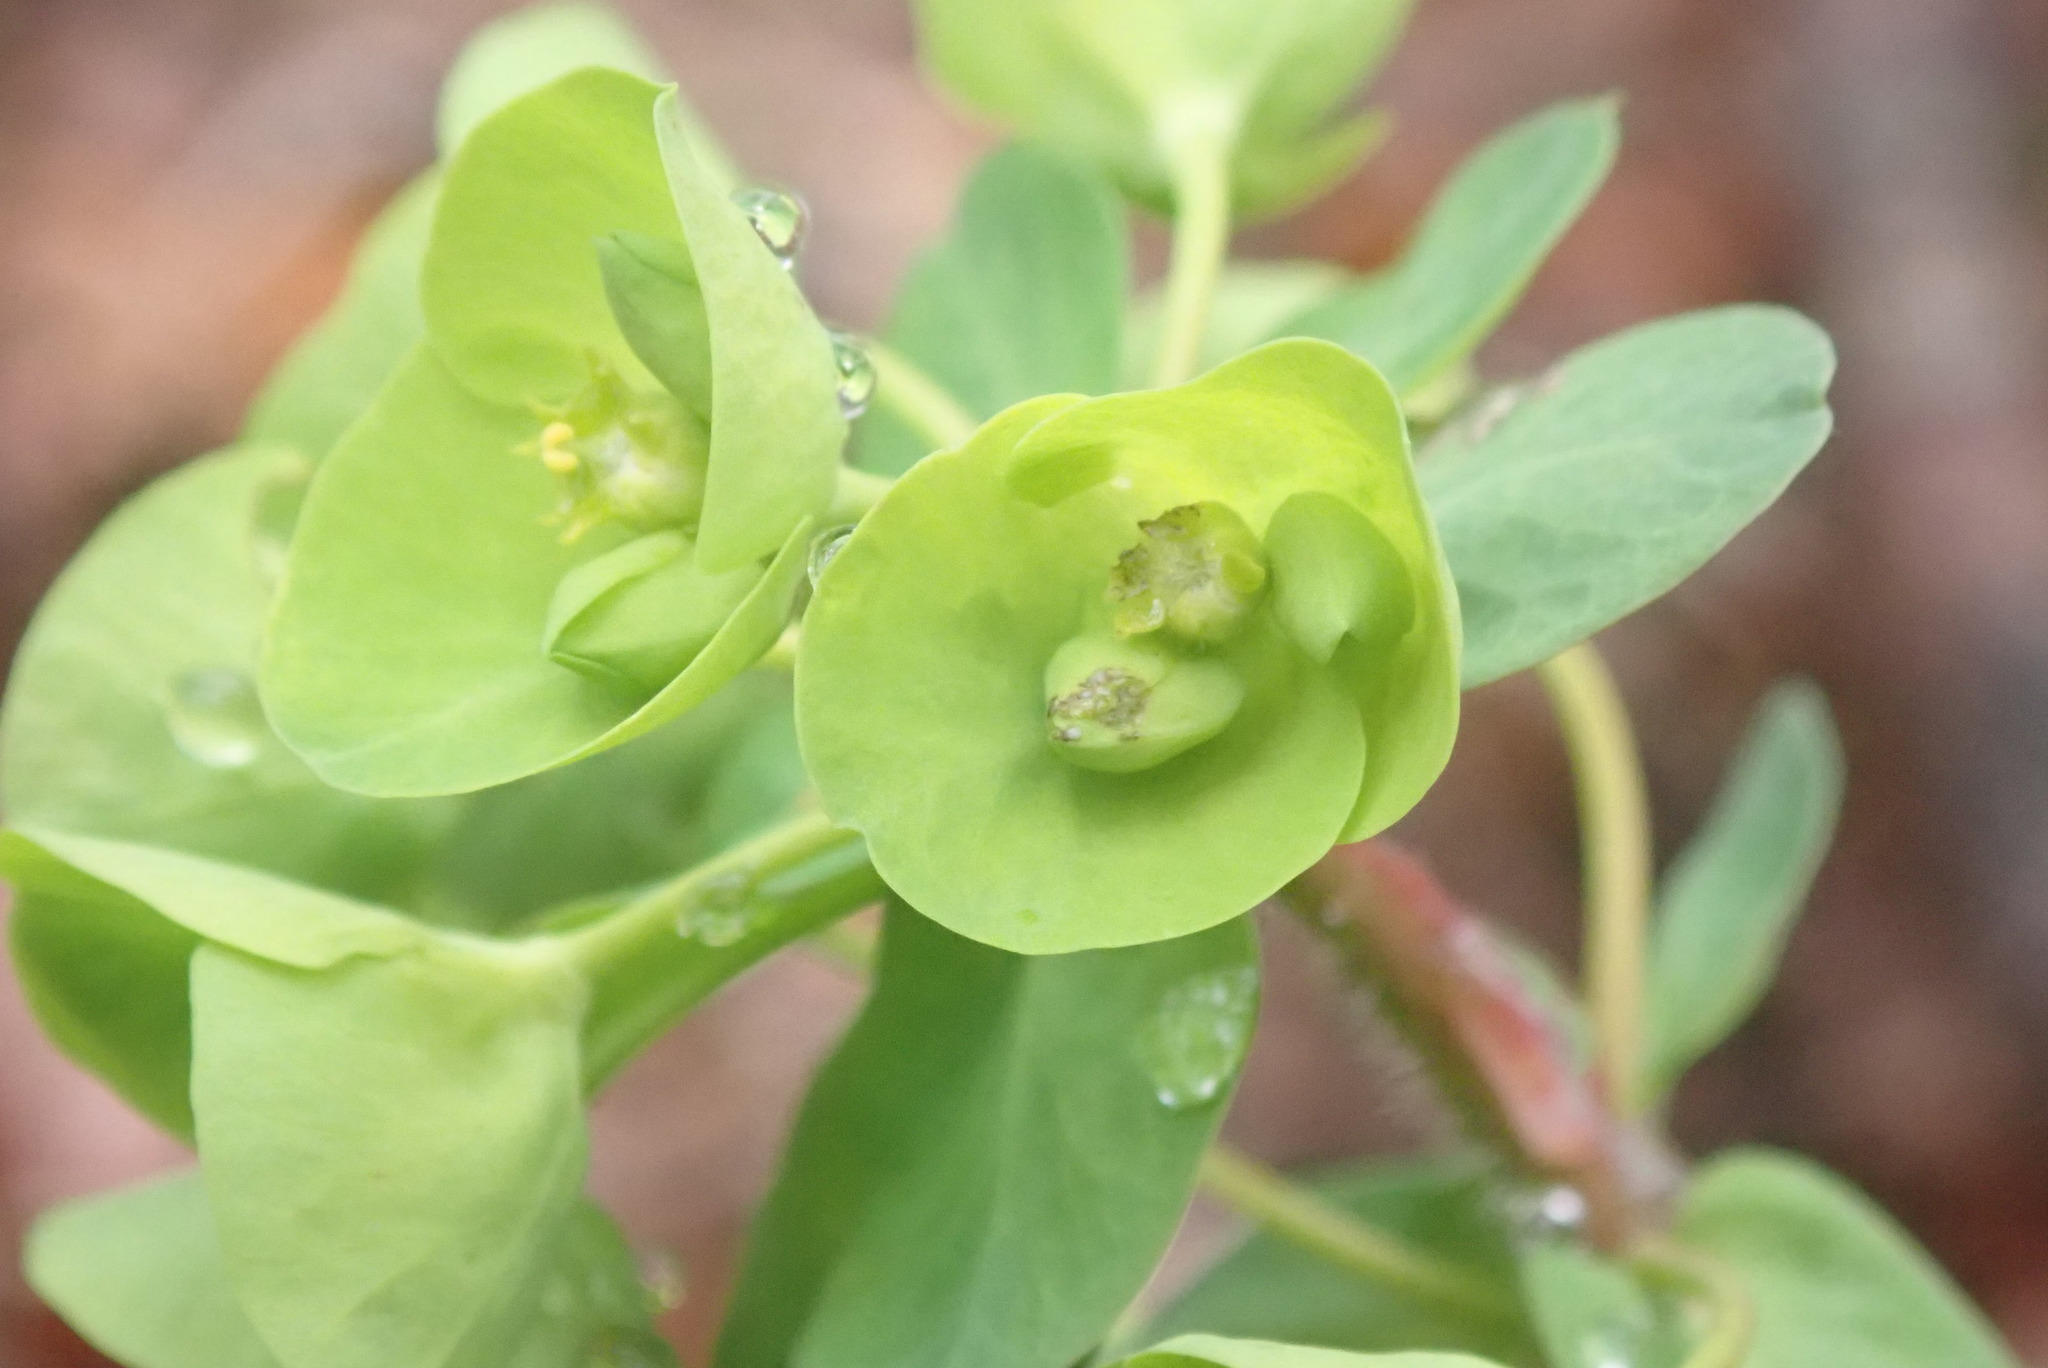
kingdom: Plantae
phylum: Tracheophyta
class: Magnoliopsida
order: Malpighiales
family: Euphorbiaceae
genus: Euphorbia
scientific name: Euphorbia amygdaloides
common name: Wood spurge
